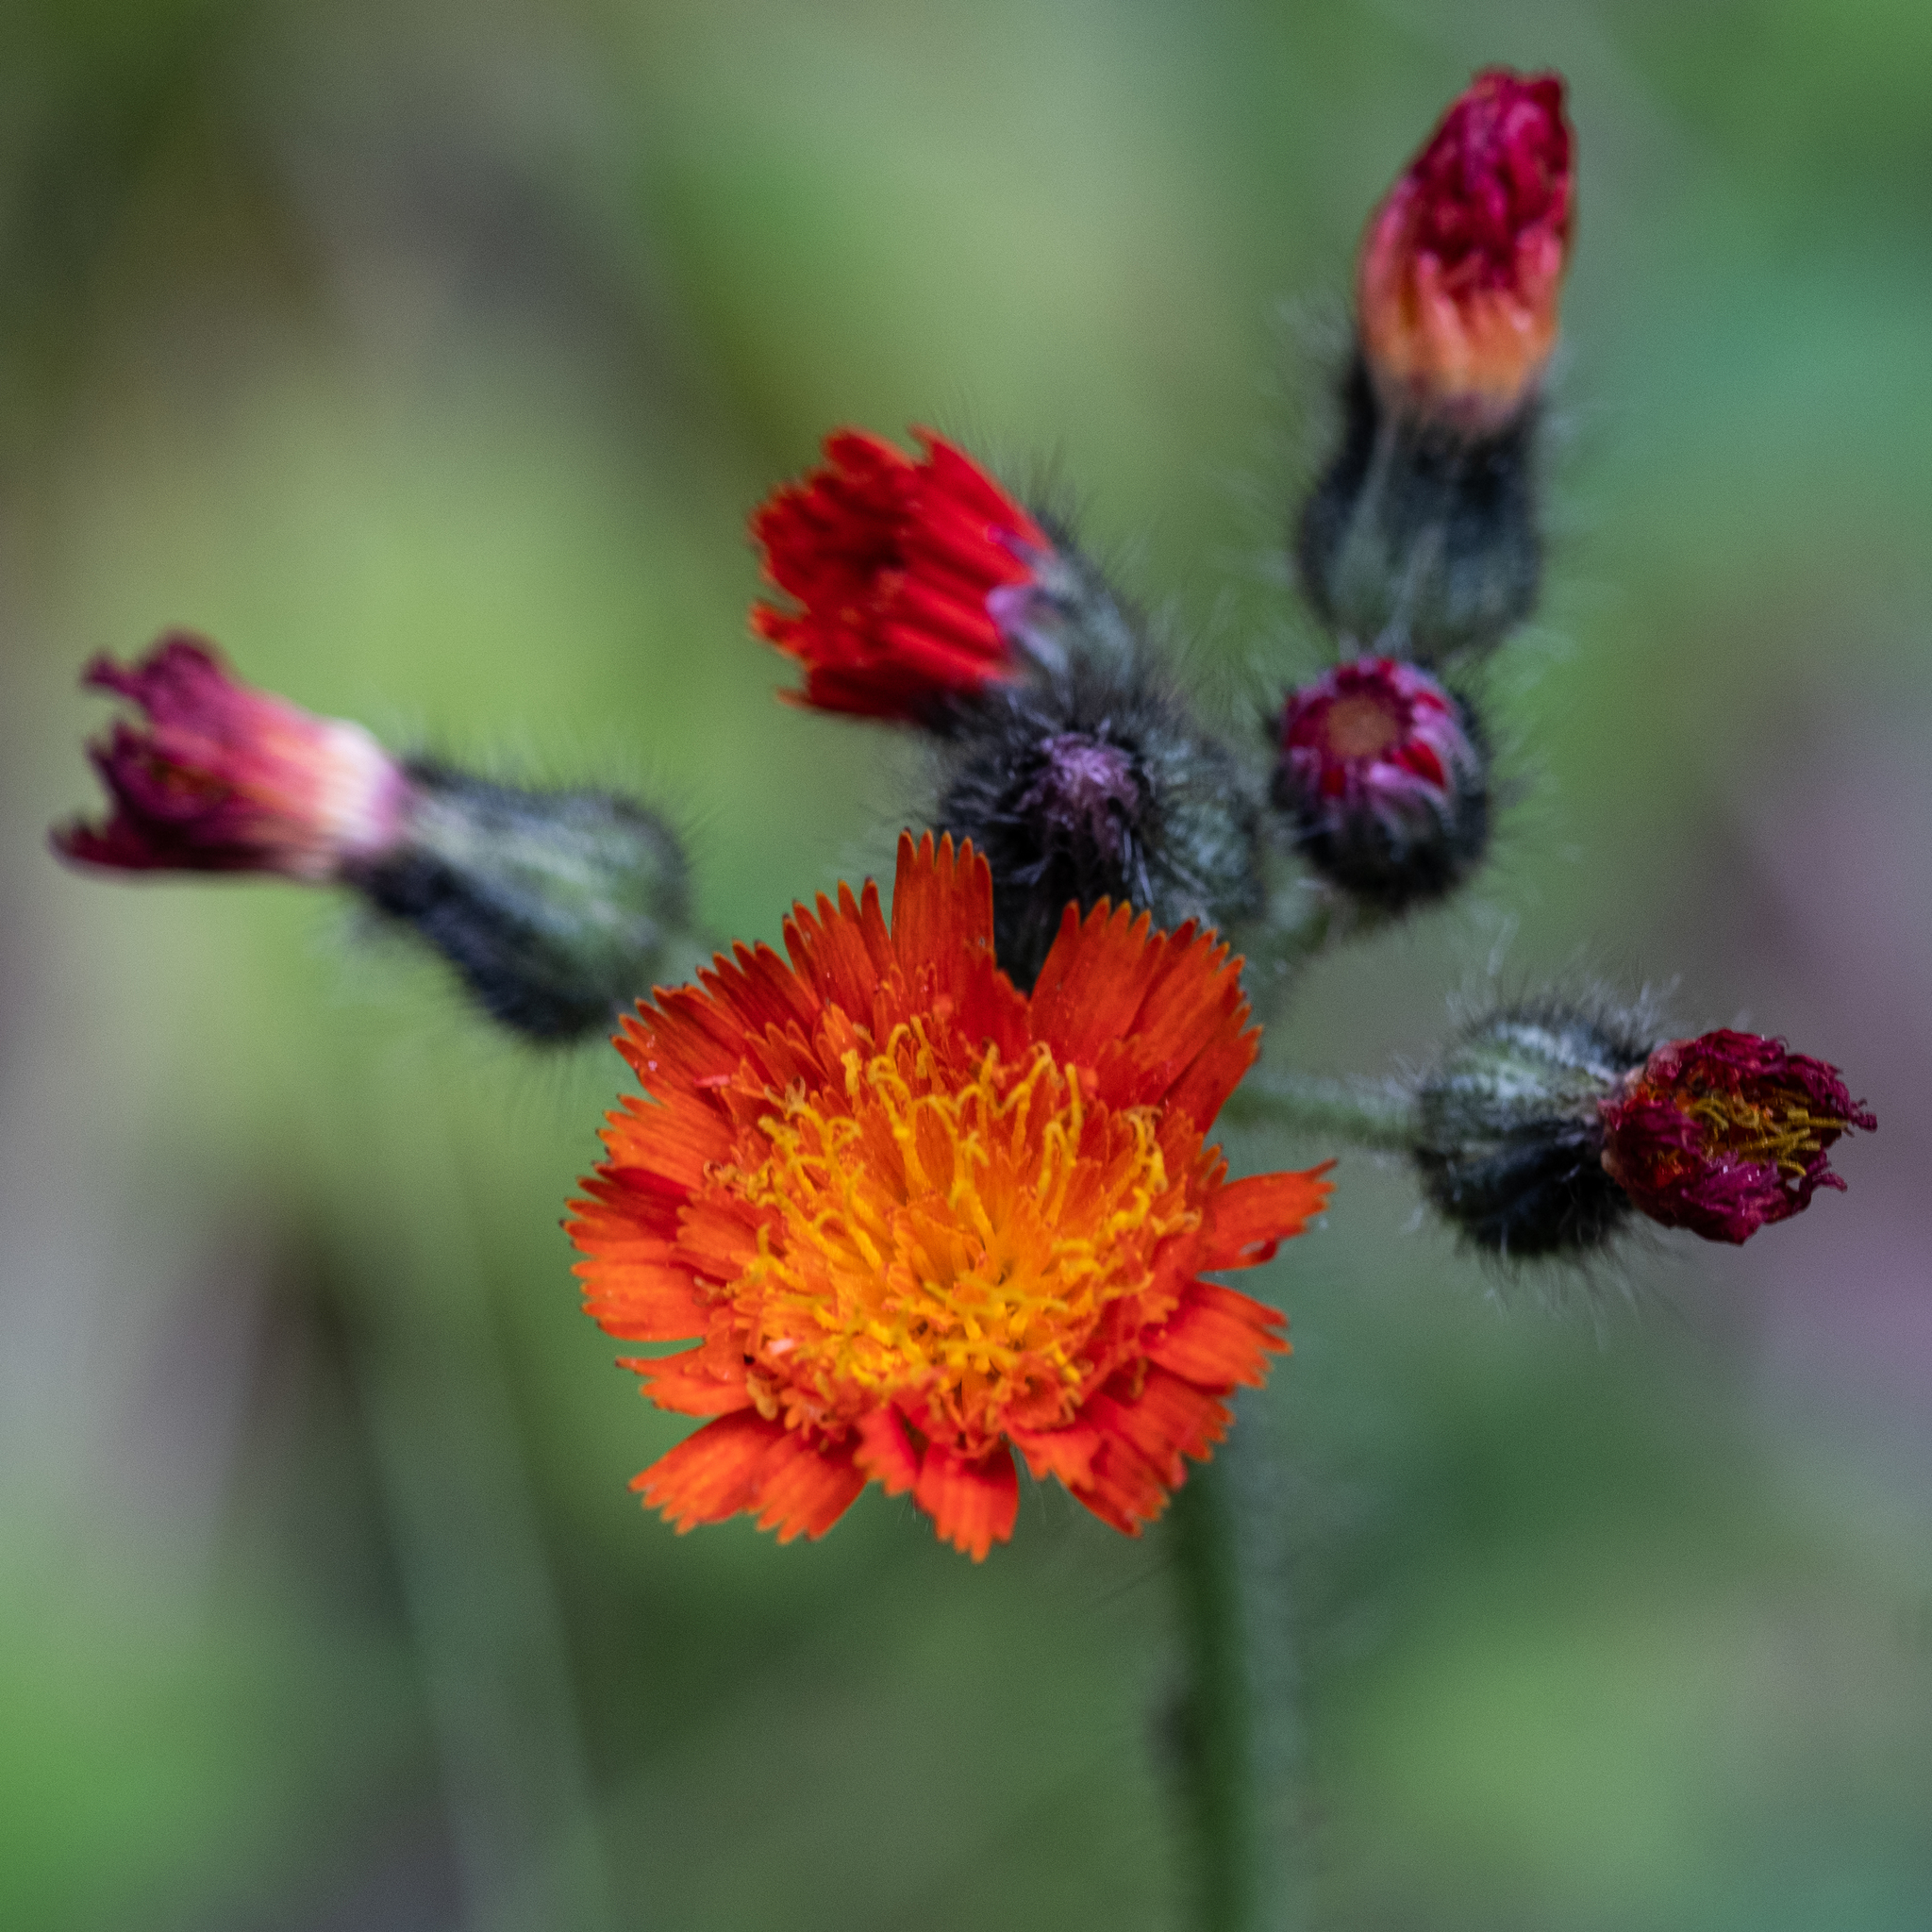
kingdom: Plantae
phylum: Tracheophyta
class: Magnoliopsida
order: Asterales
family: Asteraceae
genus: Pilosella
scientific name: Pilosella aurantiaca
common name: Fox-and-cubs
